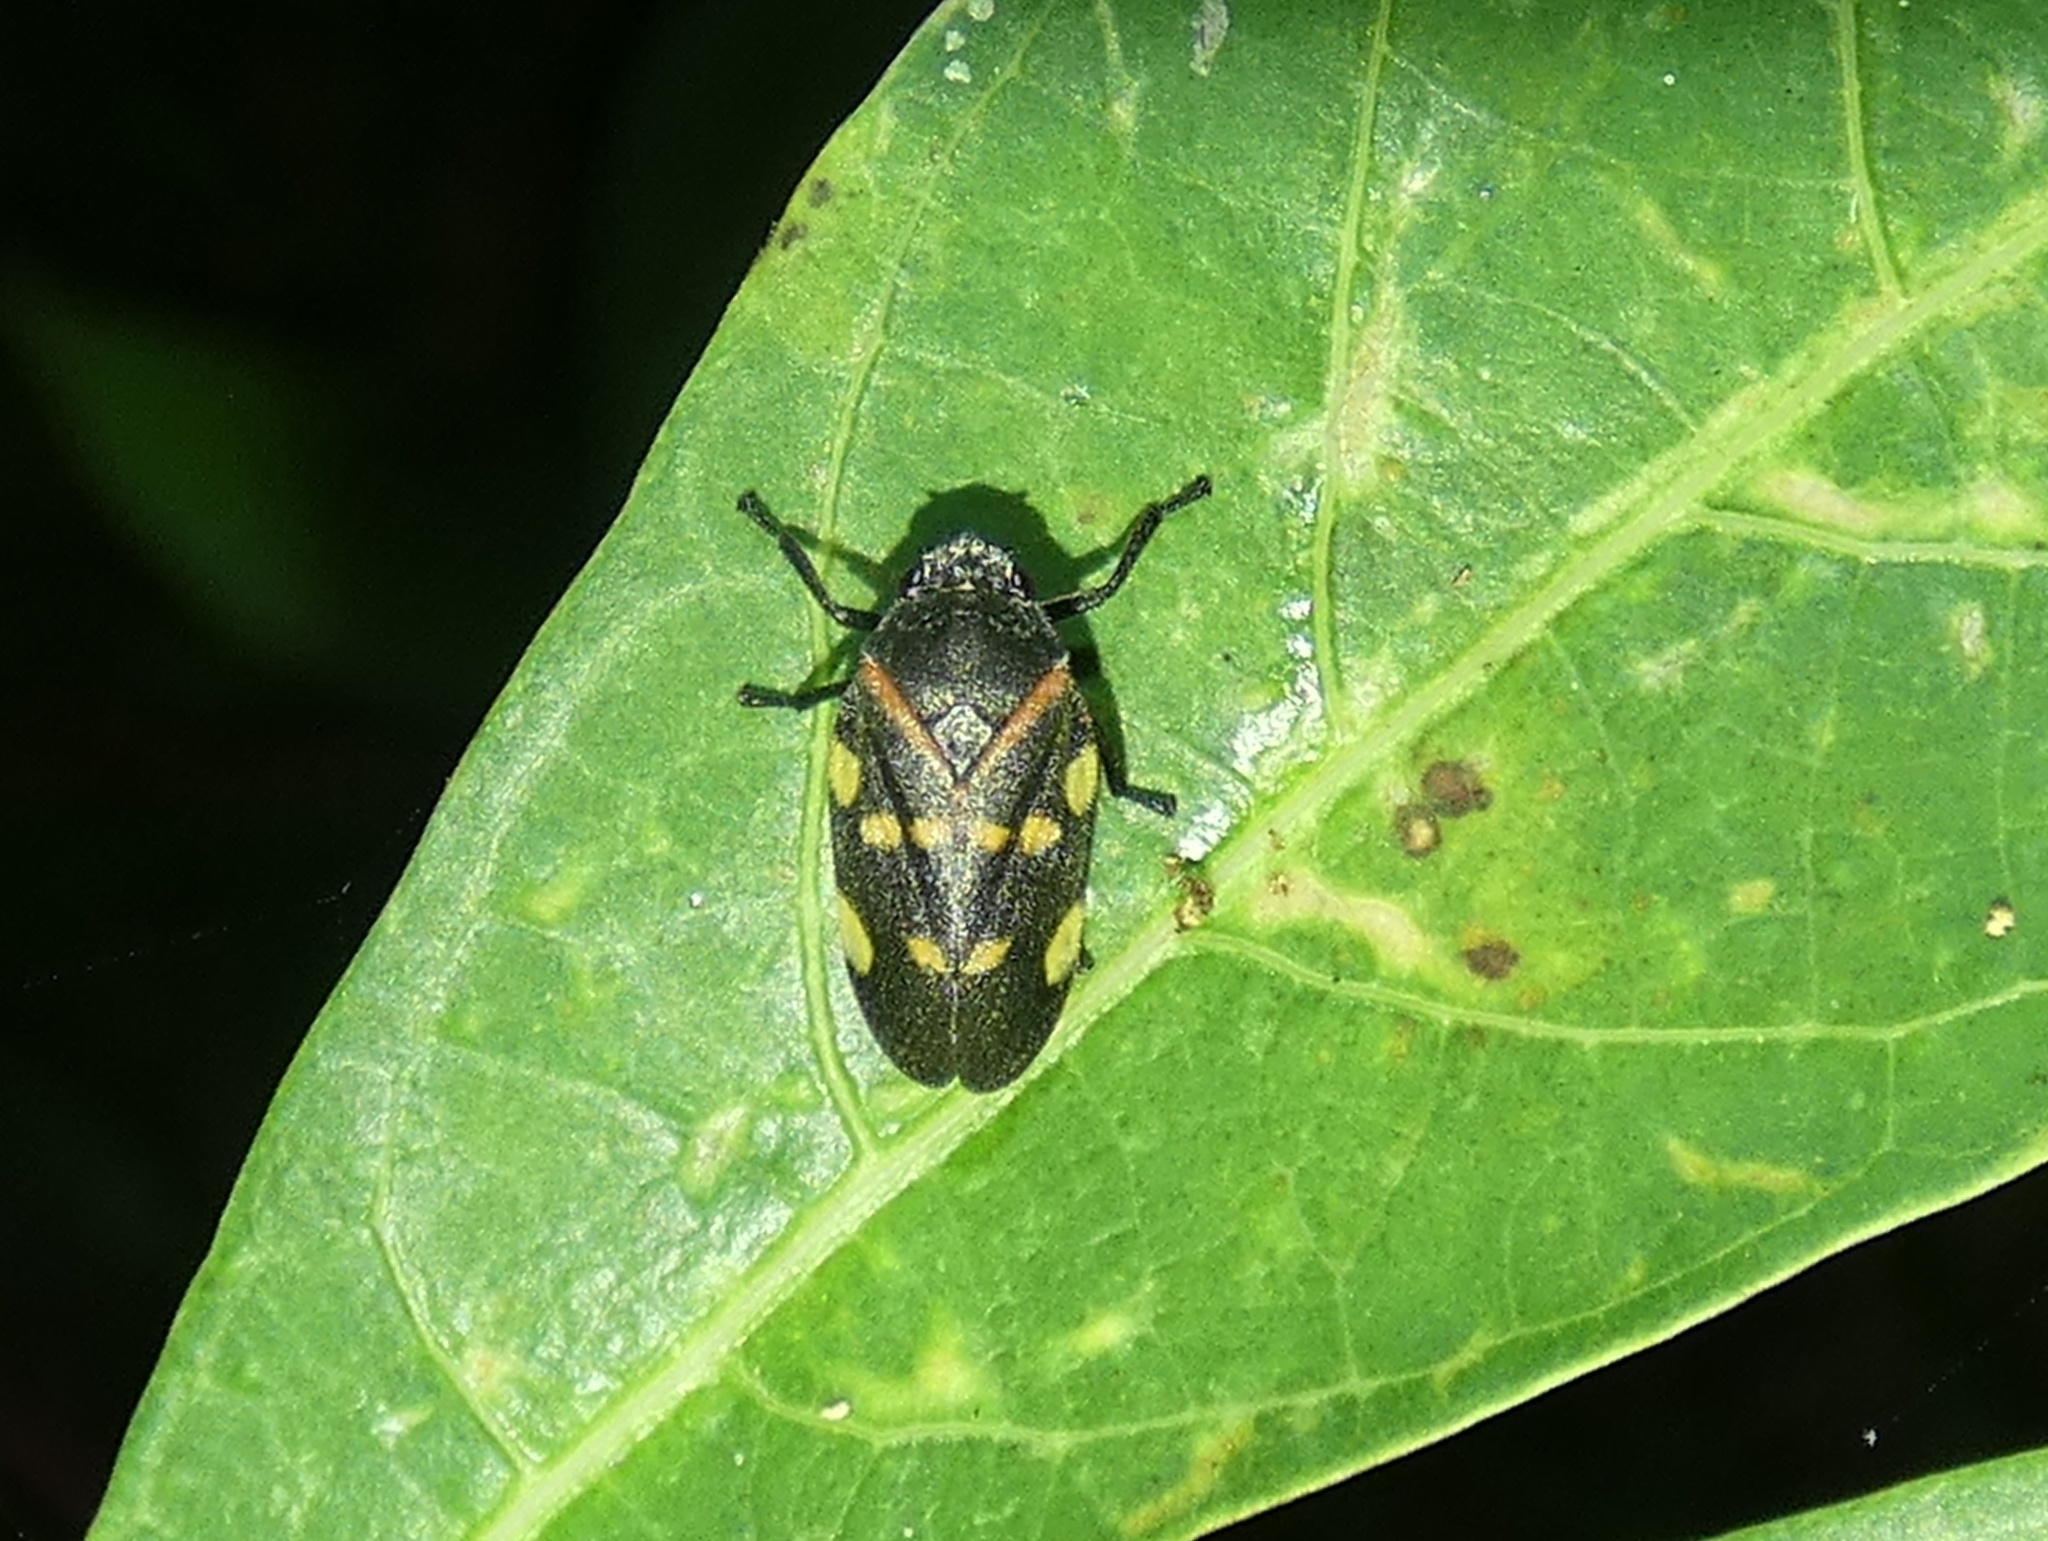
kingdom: Animalia
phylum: Arthropoda
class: Insecta
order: Hemiptera
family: Cercopidae
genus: Aeneolamia
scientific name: Aeneolamia lepidior
